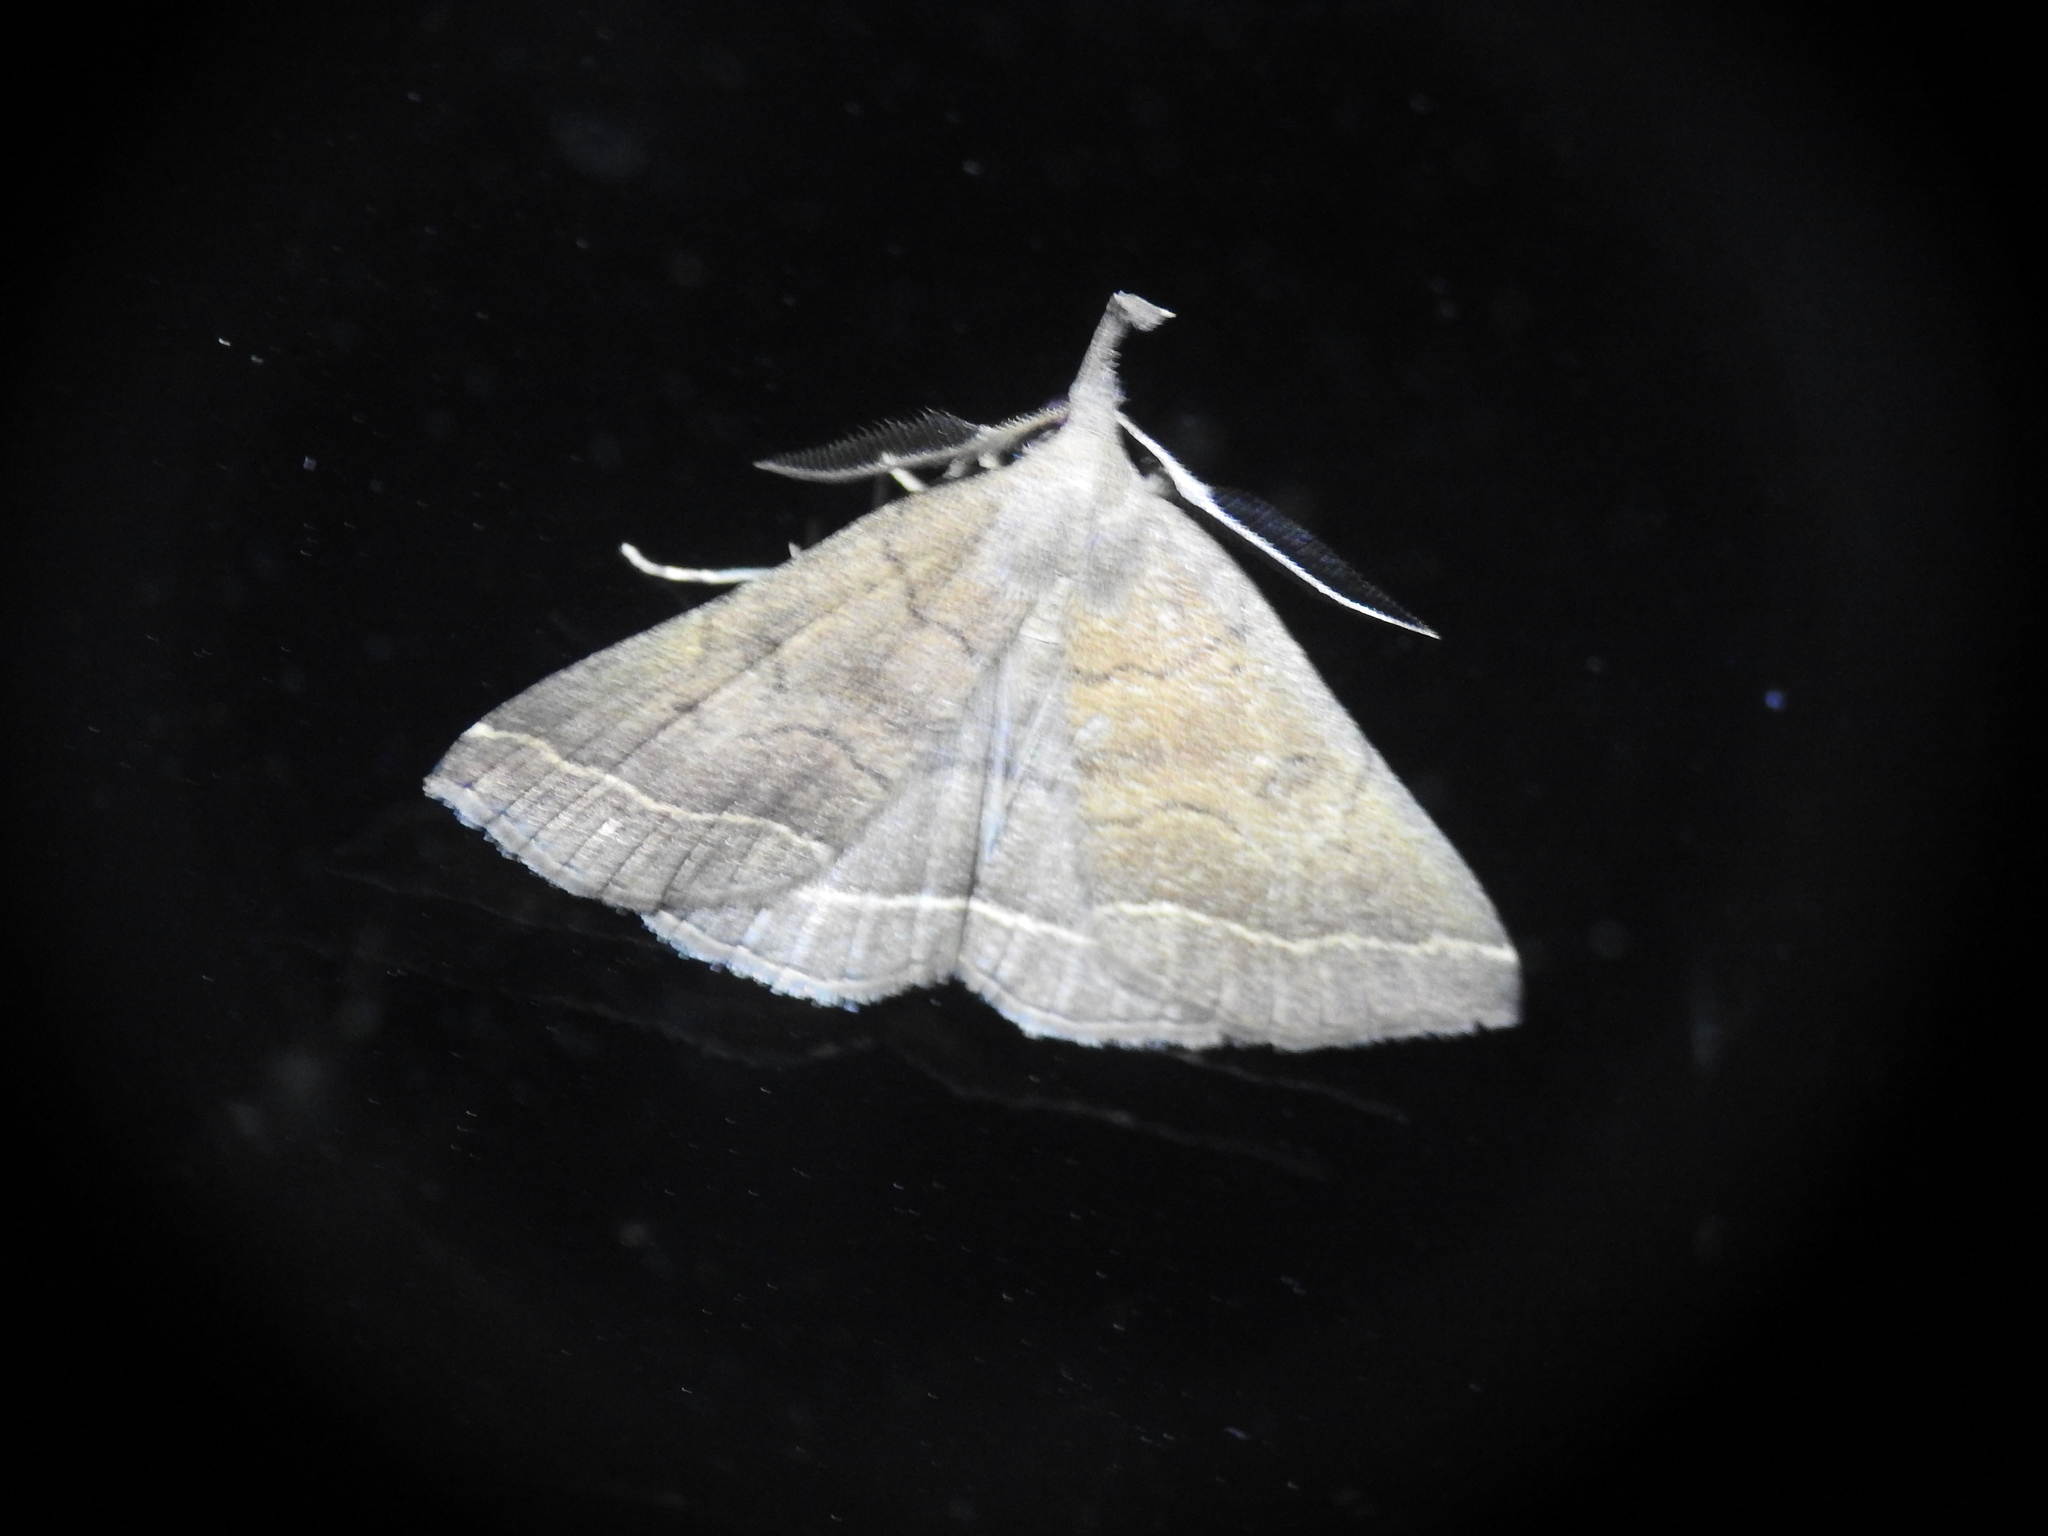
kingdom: Animalia
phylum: Arthropoda
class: Insecta
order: Lepidoptera
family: Erebidae
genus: Pechipogo
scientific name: Pechipogo plumigeralis
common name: Plumed fan-foot
